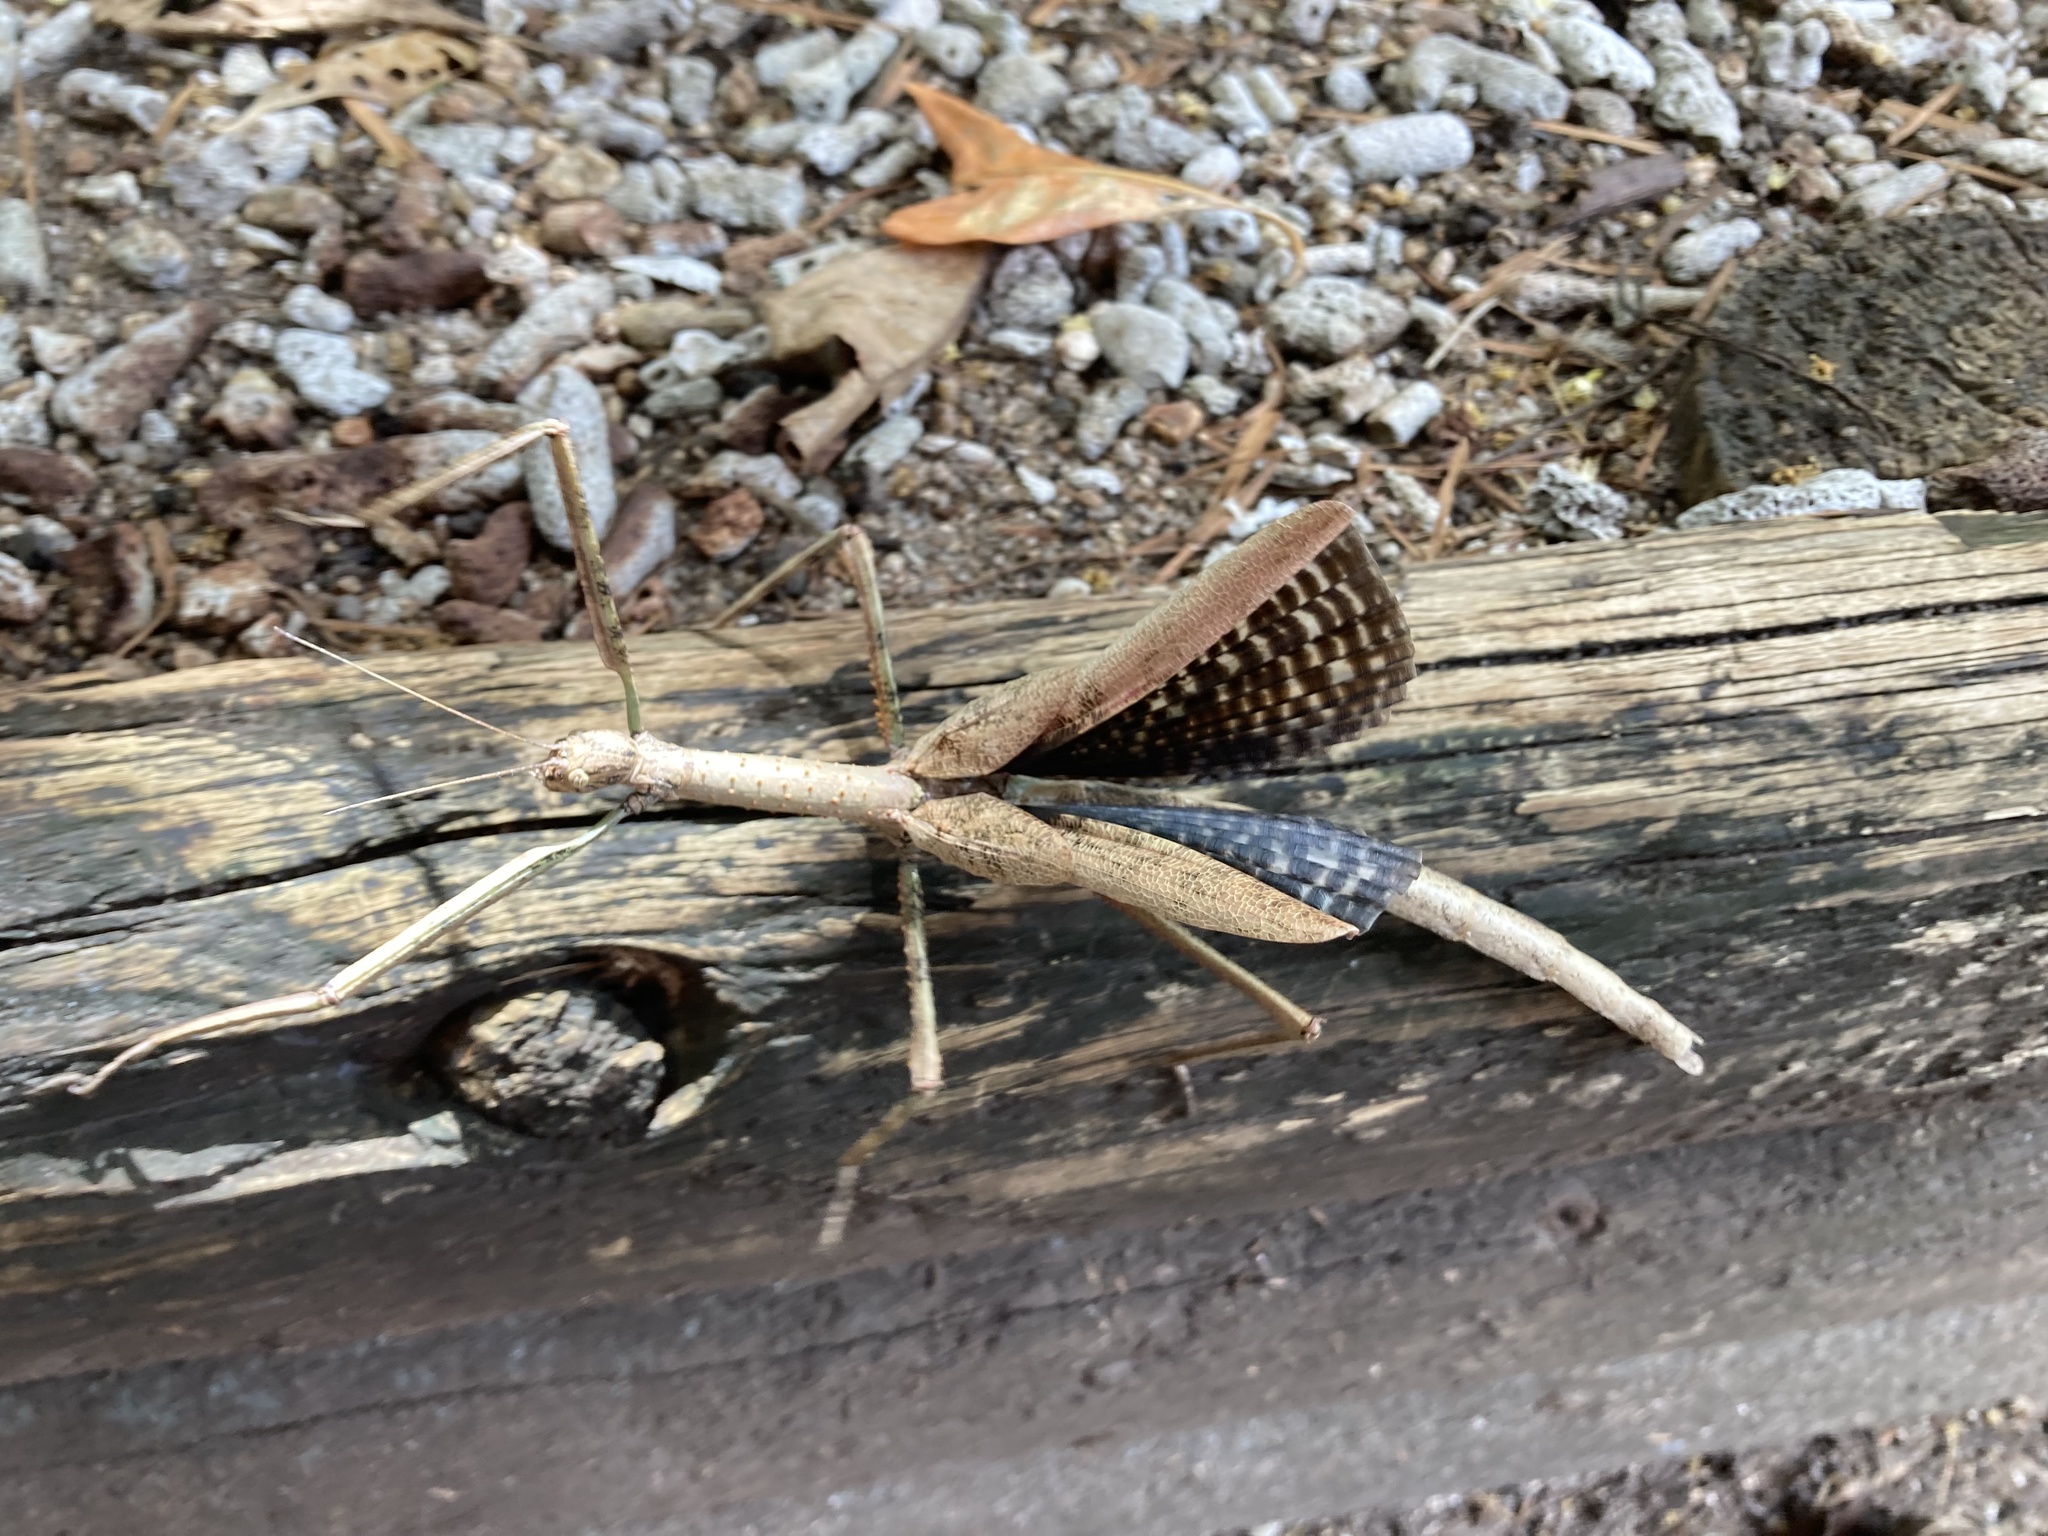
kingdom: Animalia
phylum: Arthropoda
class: Insecta
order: Phasmida
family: Phasmatidae
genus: Anchiale
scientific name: Anchiale briareus
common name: Strong stick insect
